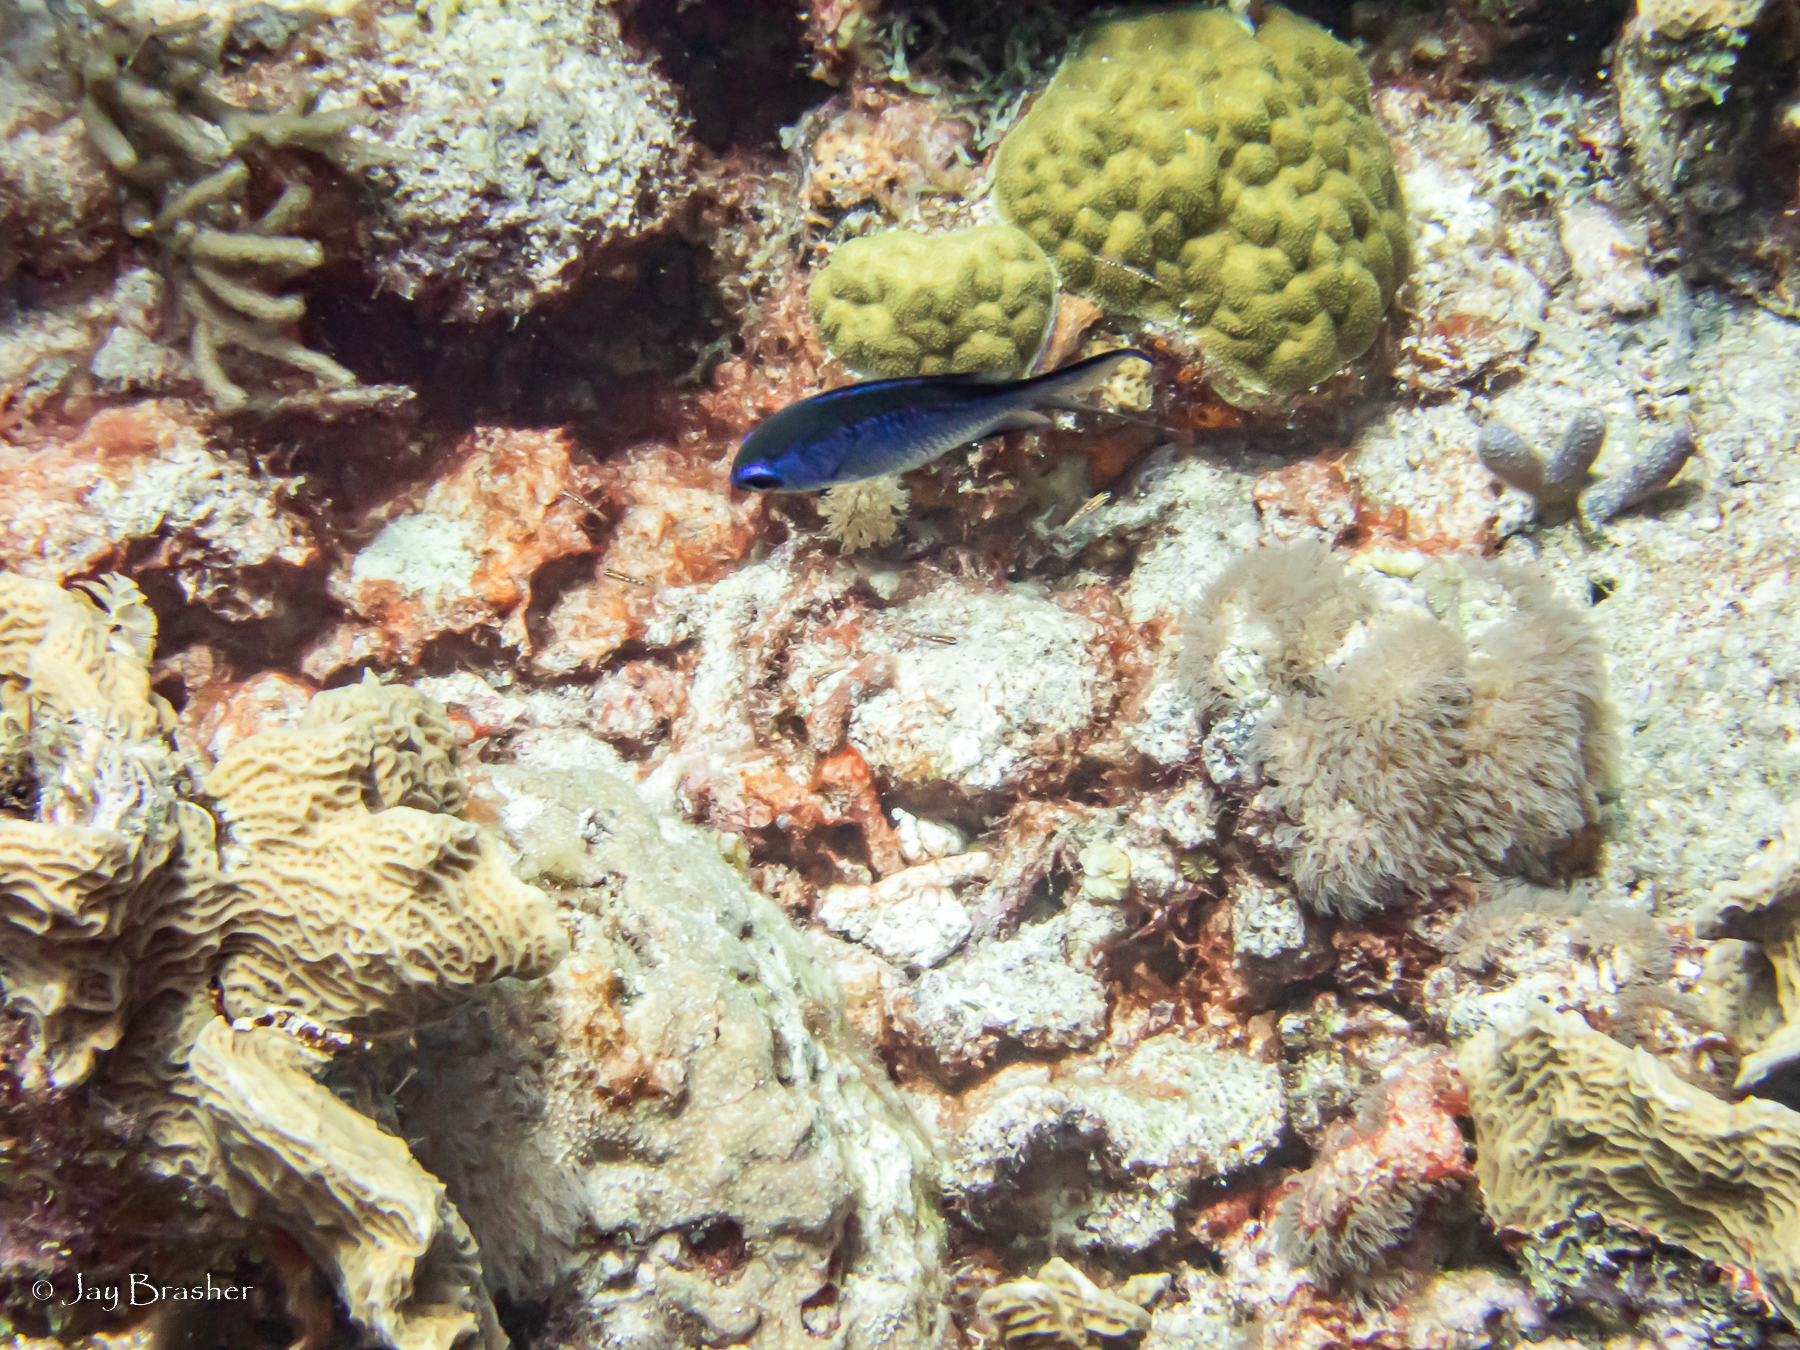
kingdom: Animalia
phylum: Chordata
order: Perciformes
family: Pomacentridae
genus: Chromis
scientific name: Chromis cyanea
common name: Blue chromis
